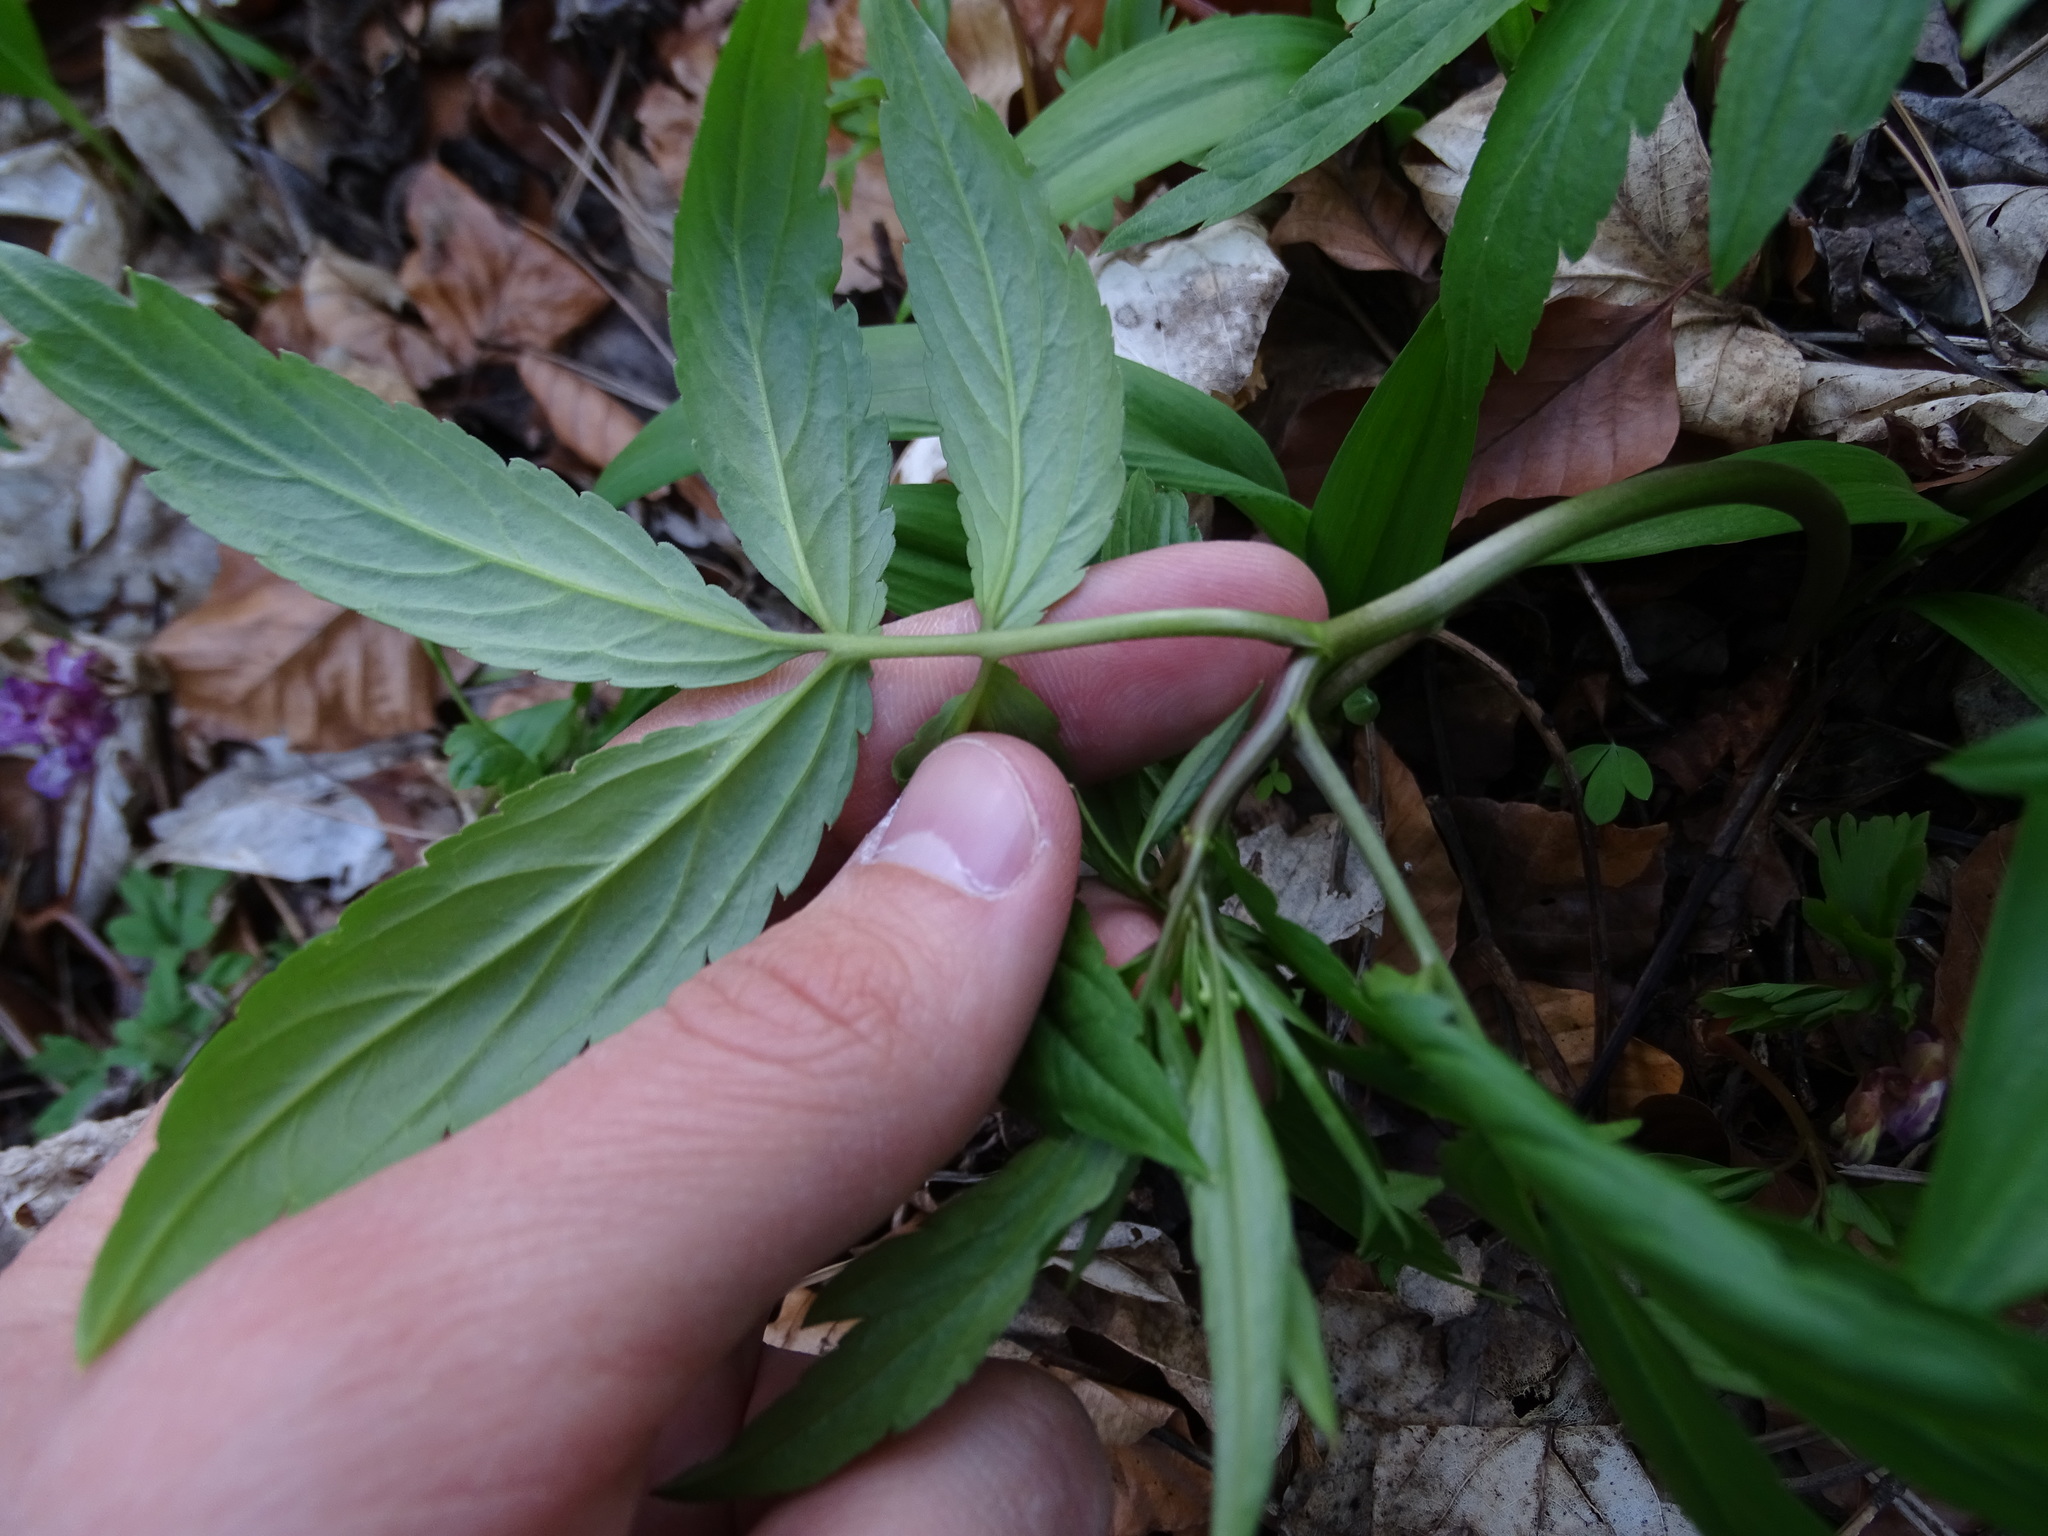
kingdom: Plantae
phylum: Tracheophyta
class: Magnoliopsida
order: Brassicales
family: Brassicaceae
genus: Cardamine
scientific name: Cardamine bulbifera
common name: Coralroot bittercress
